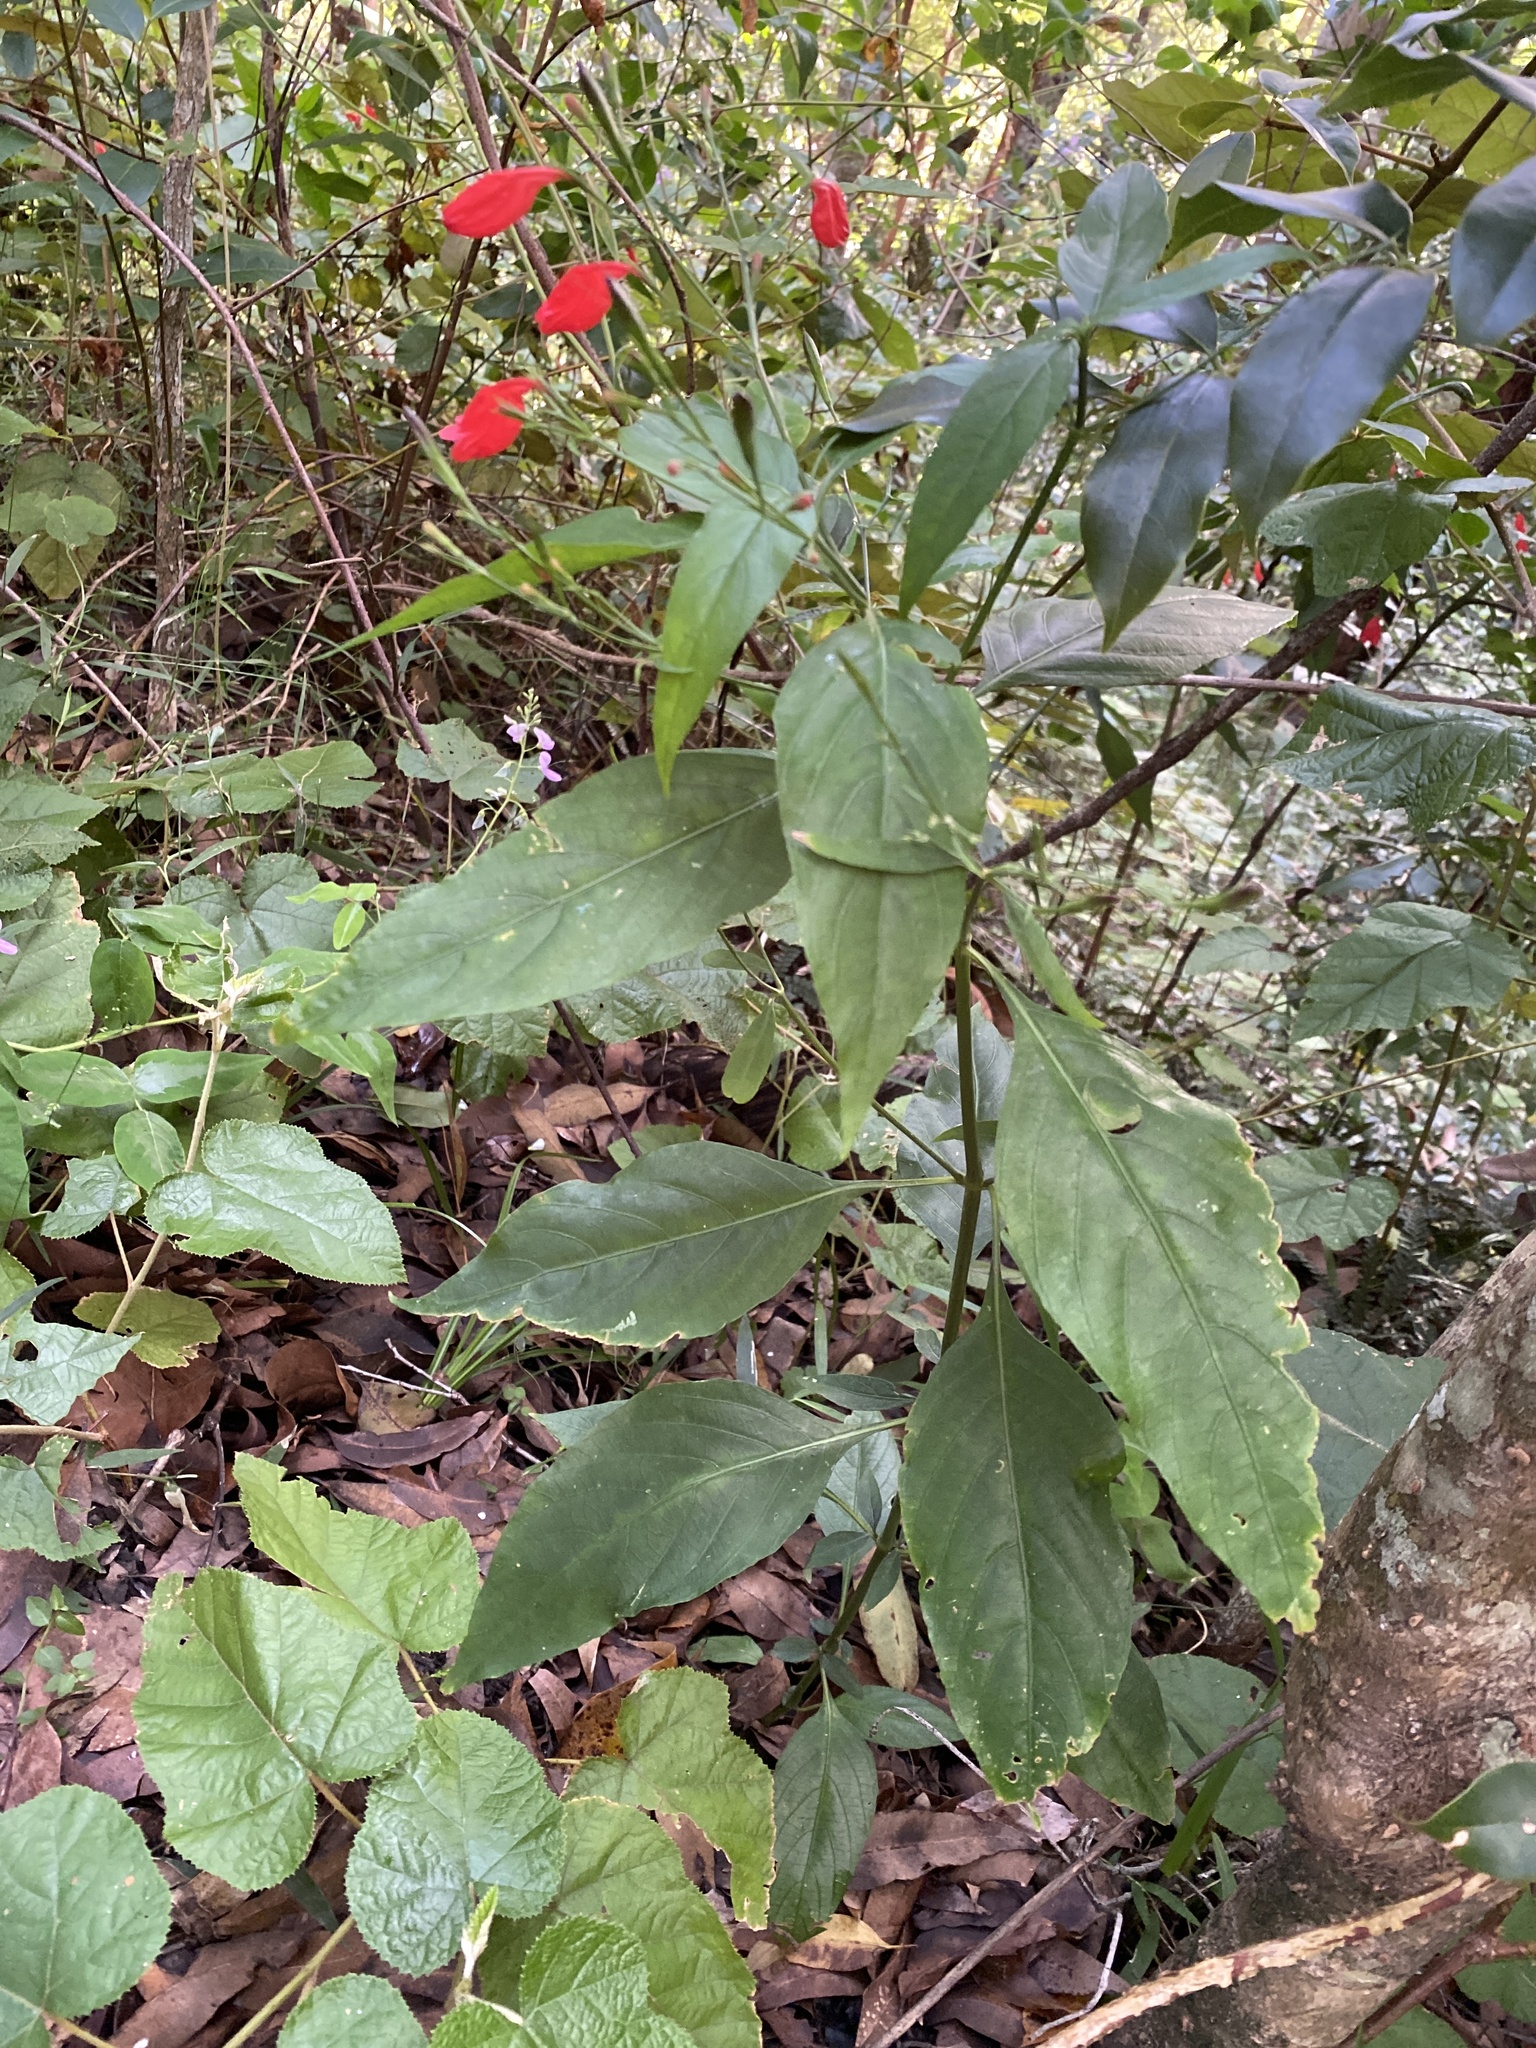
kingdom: Plantae
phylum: Tracheophyta
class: Magnoliopsida
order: Lamiales
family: Acanthaceae
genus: Ruellia
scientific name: Ruellia brevifolia
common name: Tropical wild petunia
